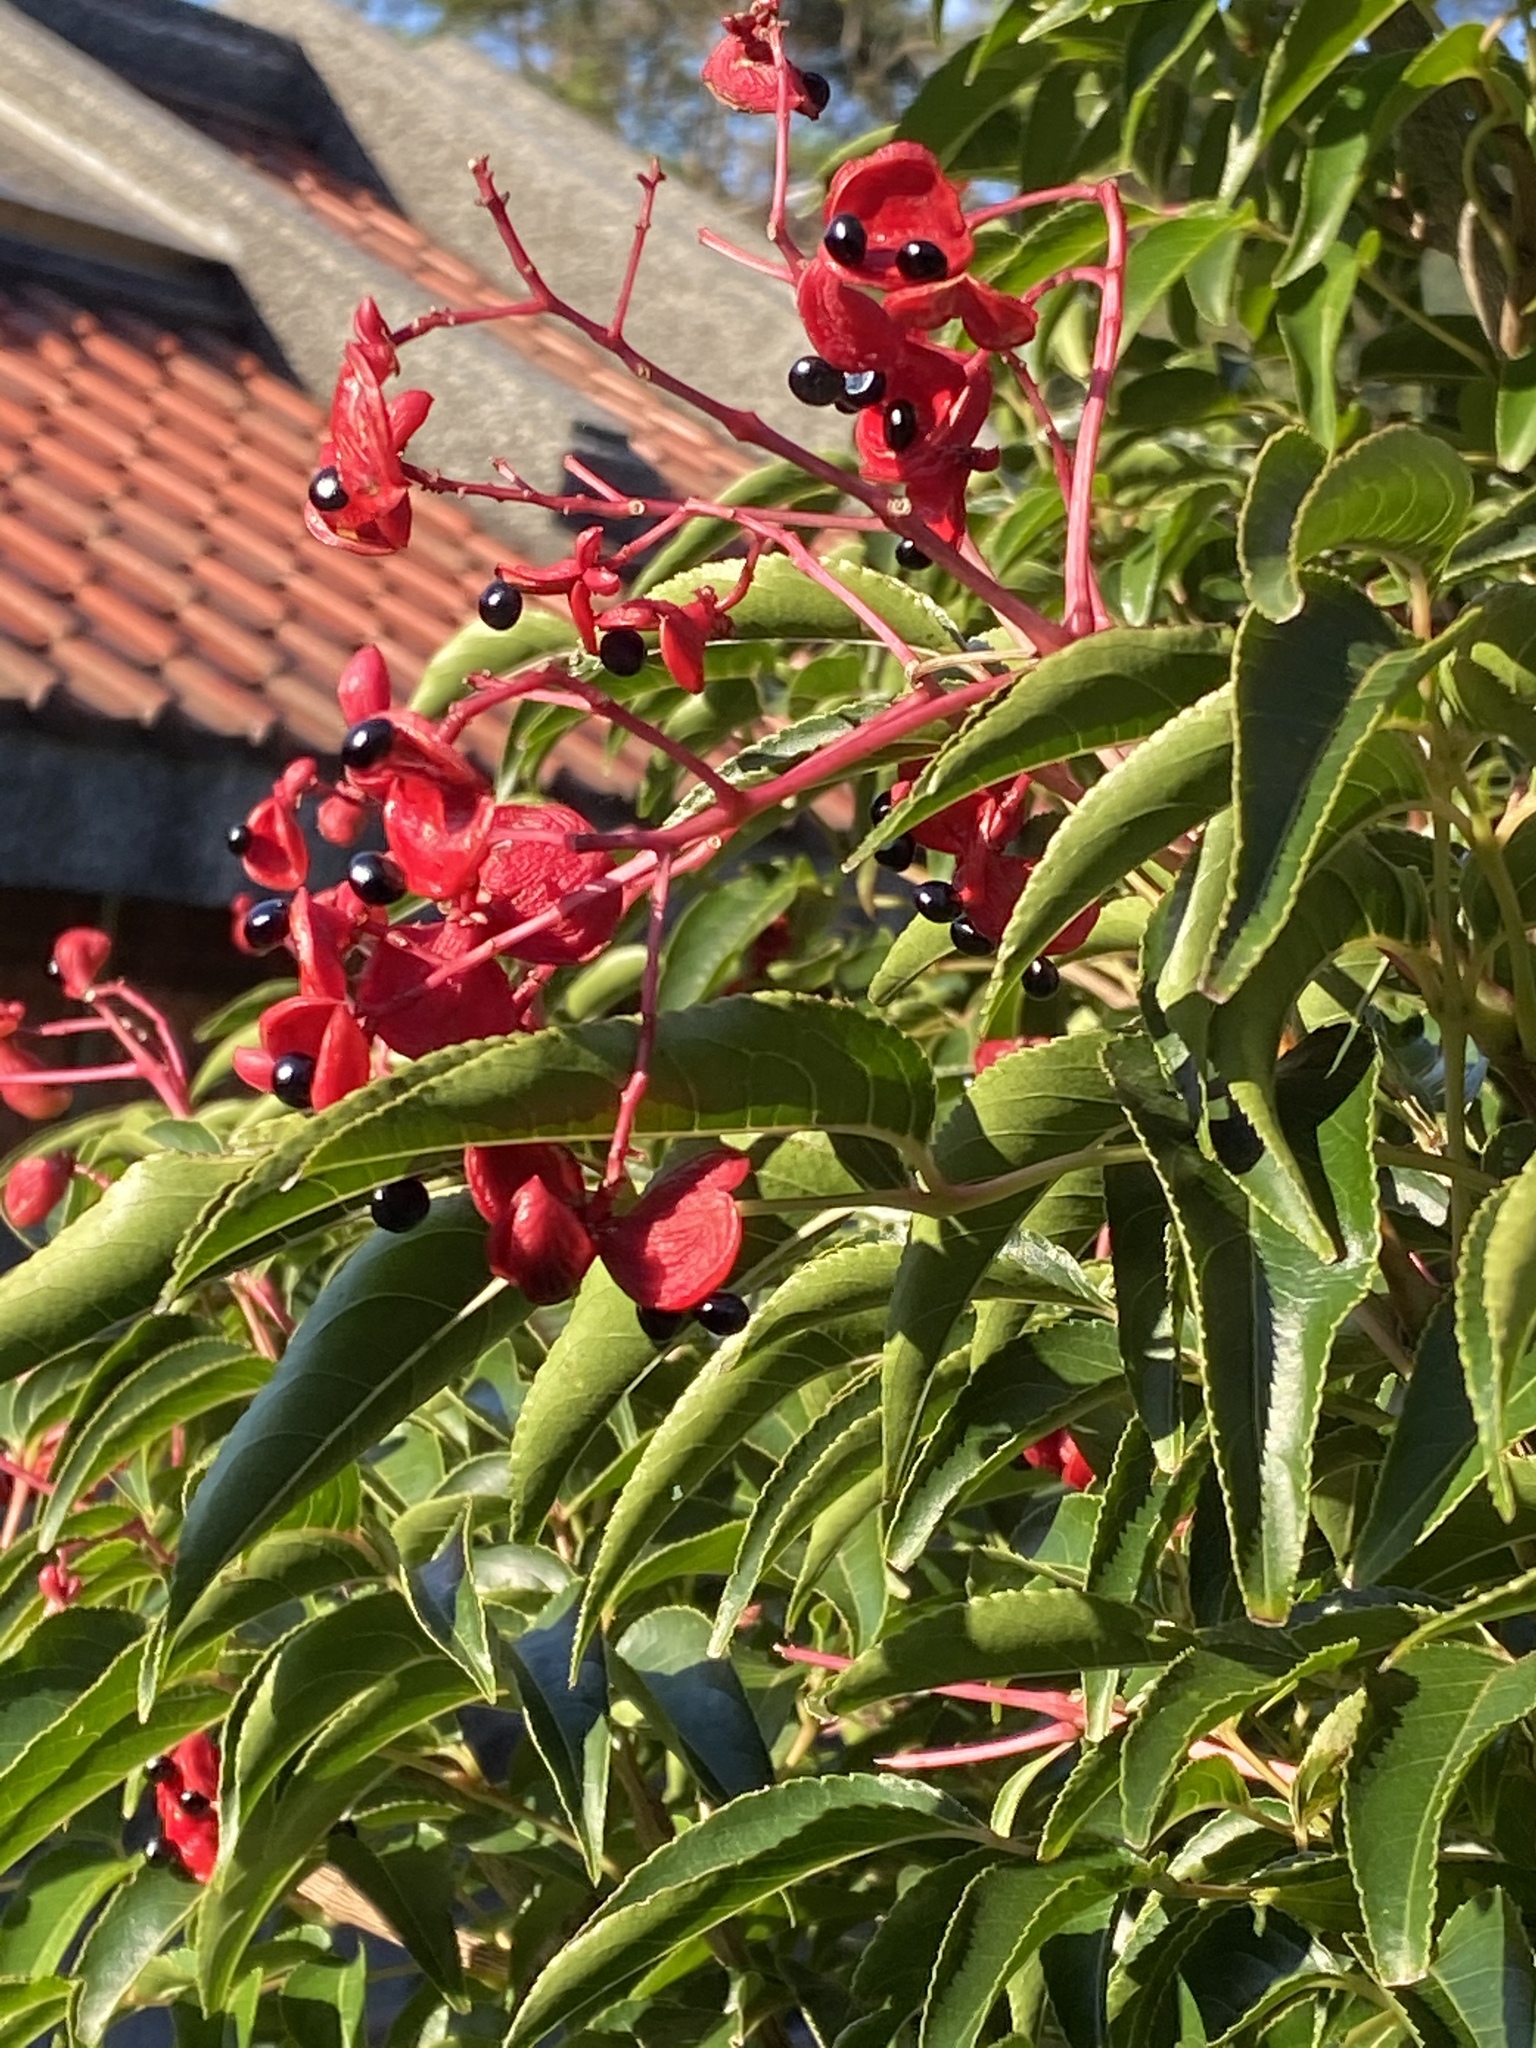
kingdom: Plantae
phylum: Tracheophyta
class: Magnoliopsida
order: Crossosomatales
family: Staphyleaceae
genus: Staphylea
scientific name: Staphylea japonica
